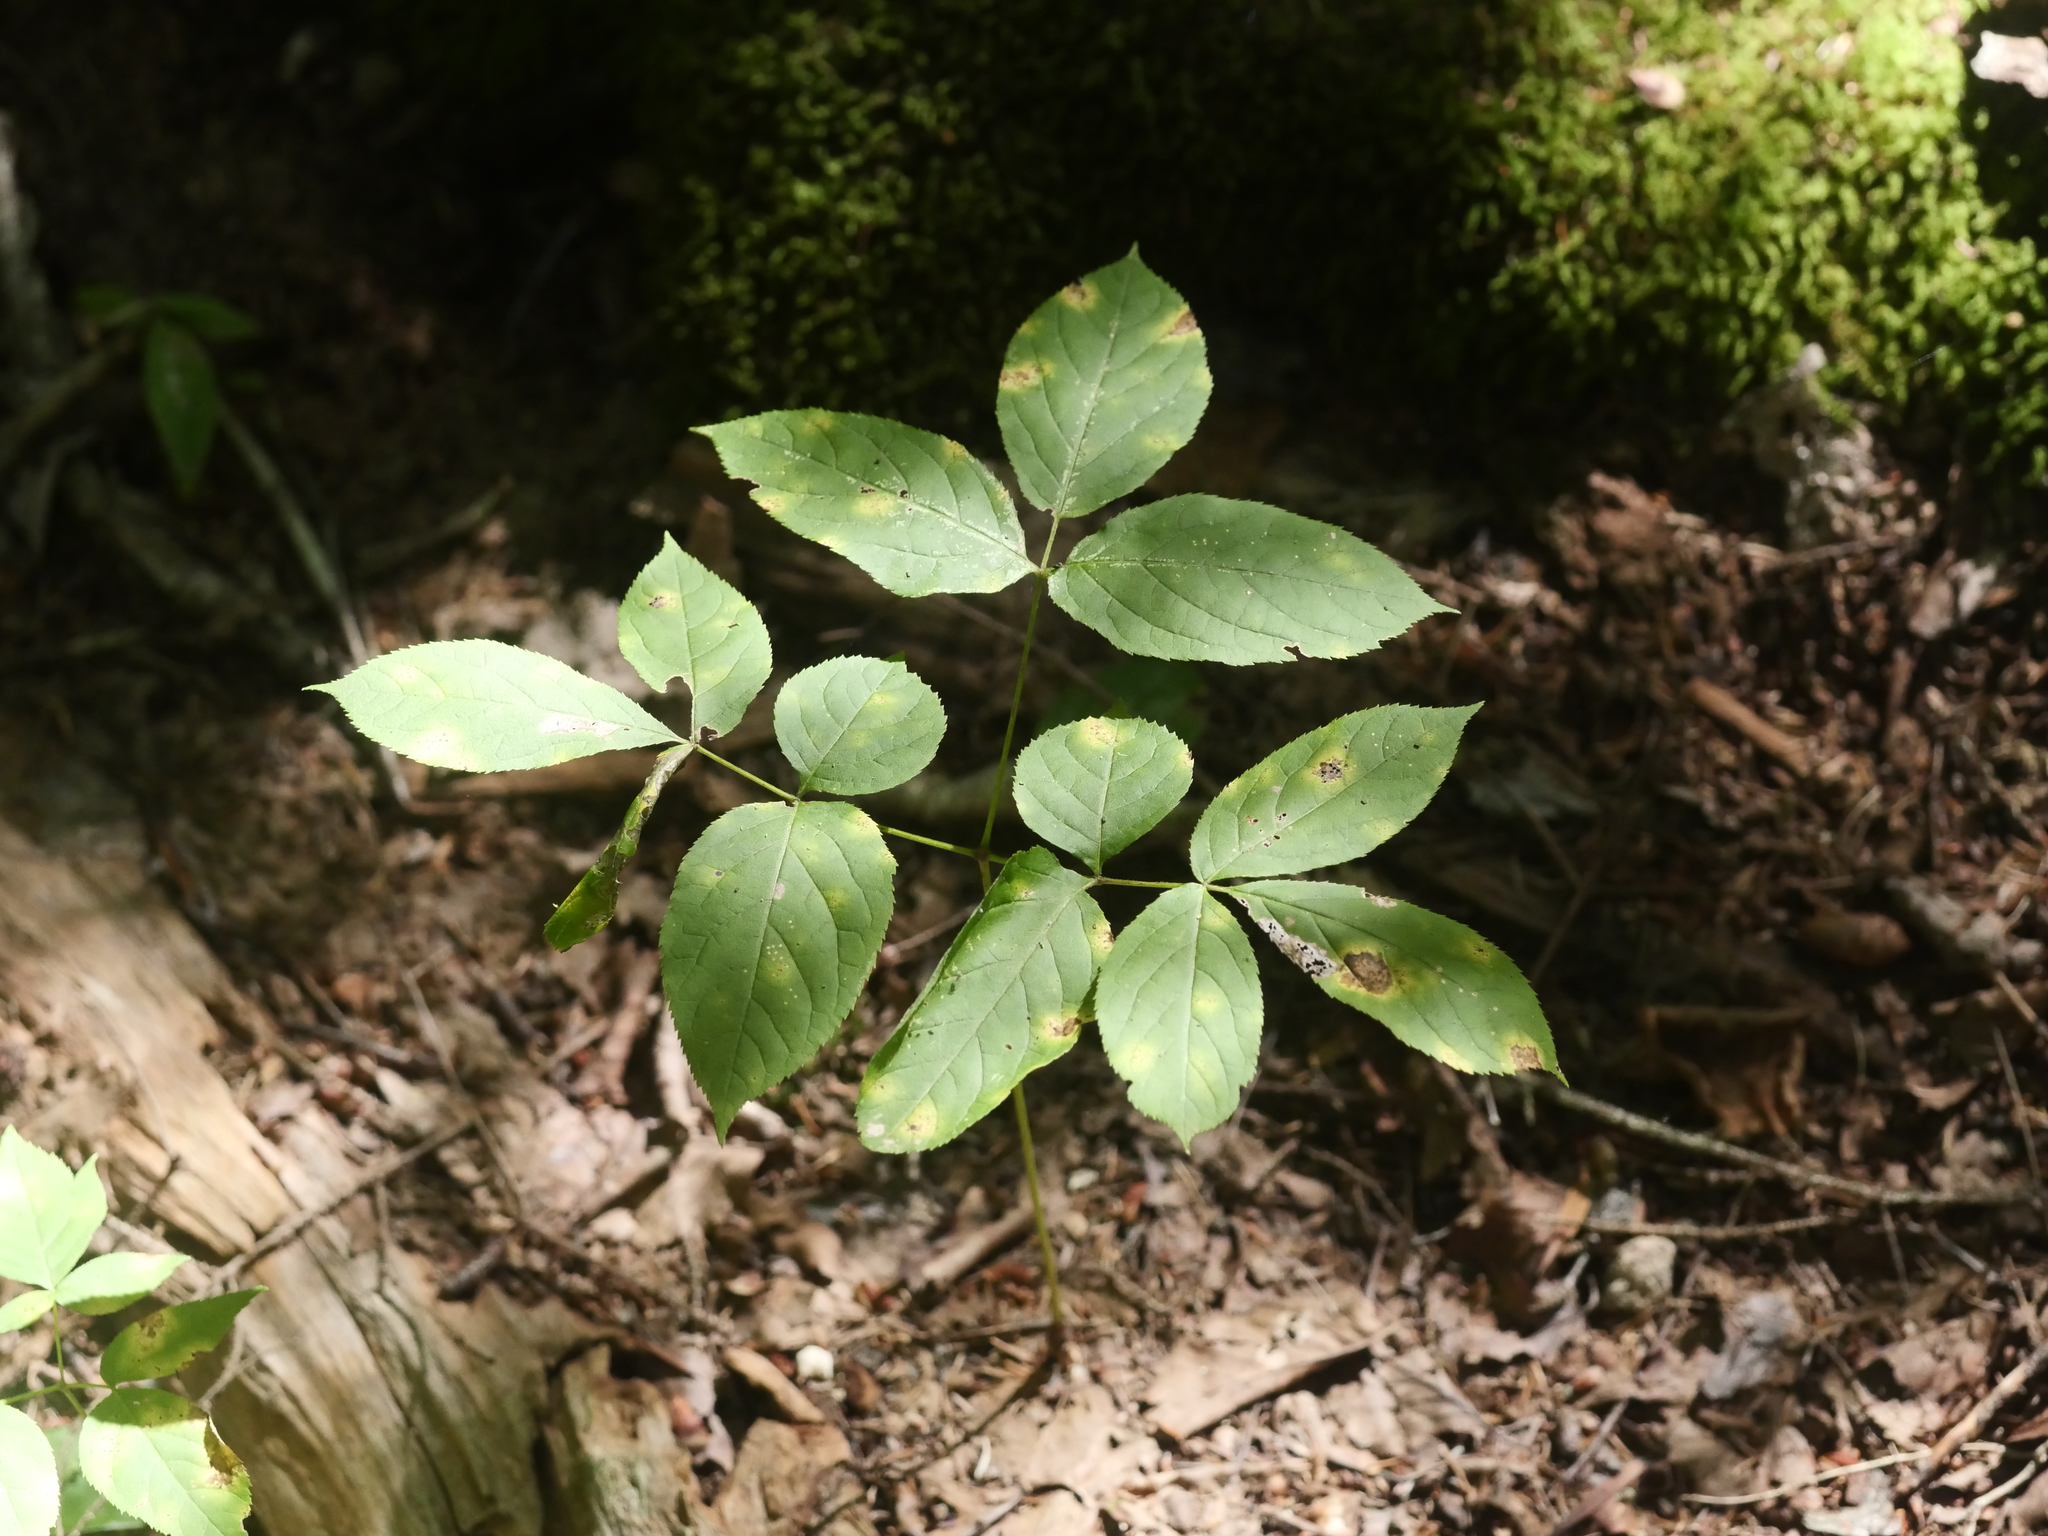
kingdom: Plantae
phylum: Tracheophyta
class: Magnoliopsida
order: Apiales
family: Araliaceae
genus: Aralia
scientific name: Aralia nudicaulis
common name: Wild sarsaparilla
